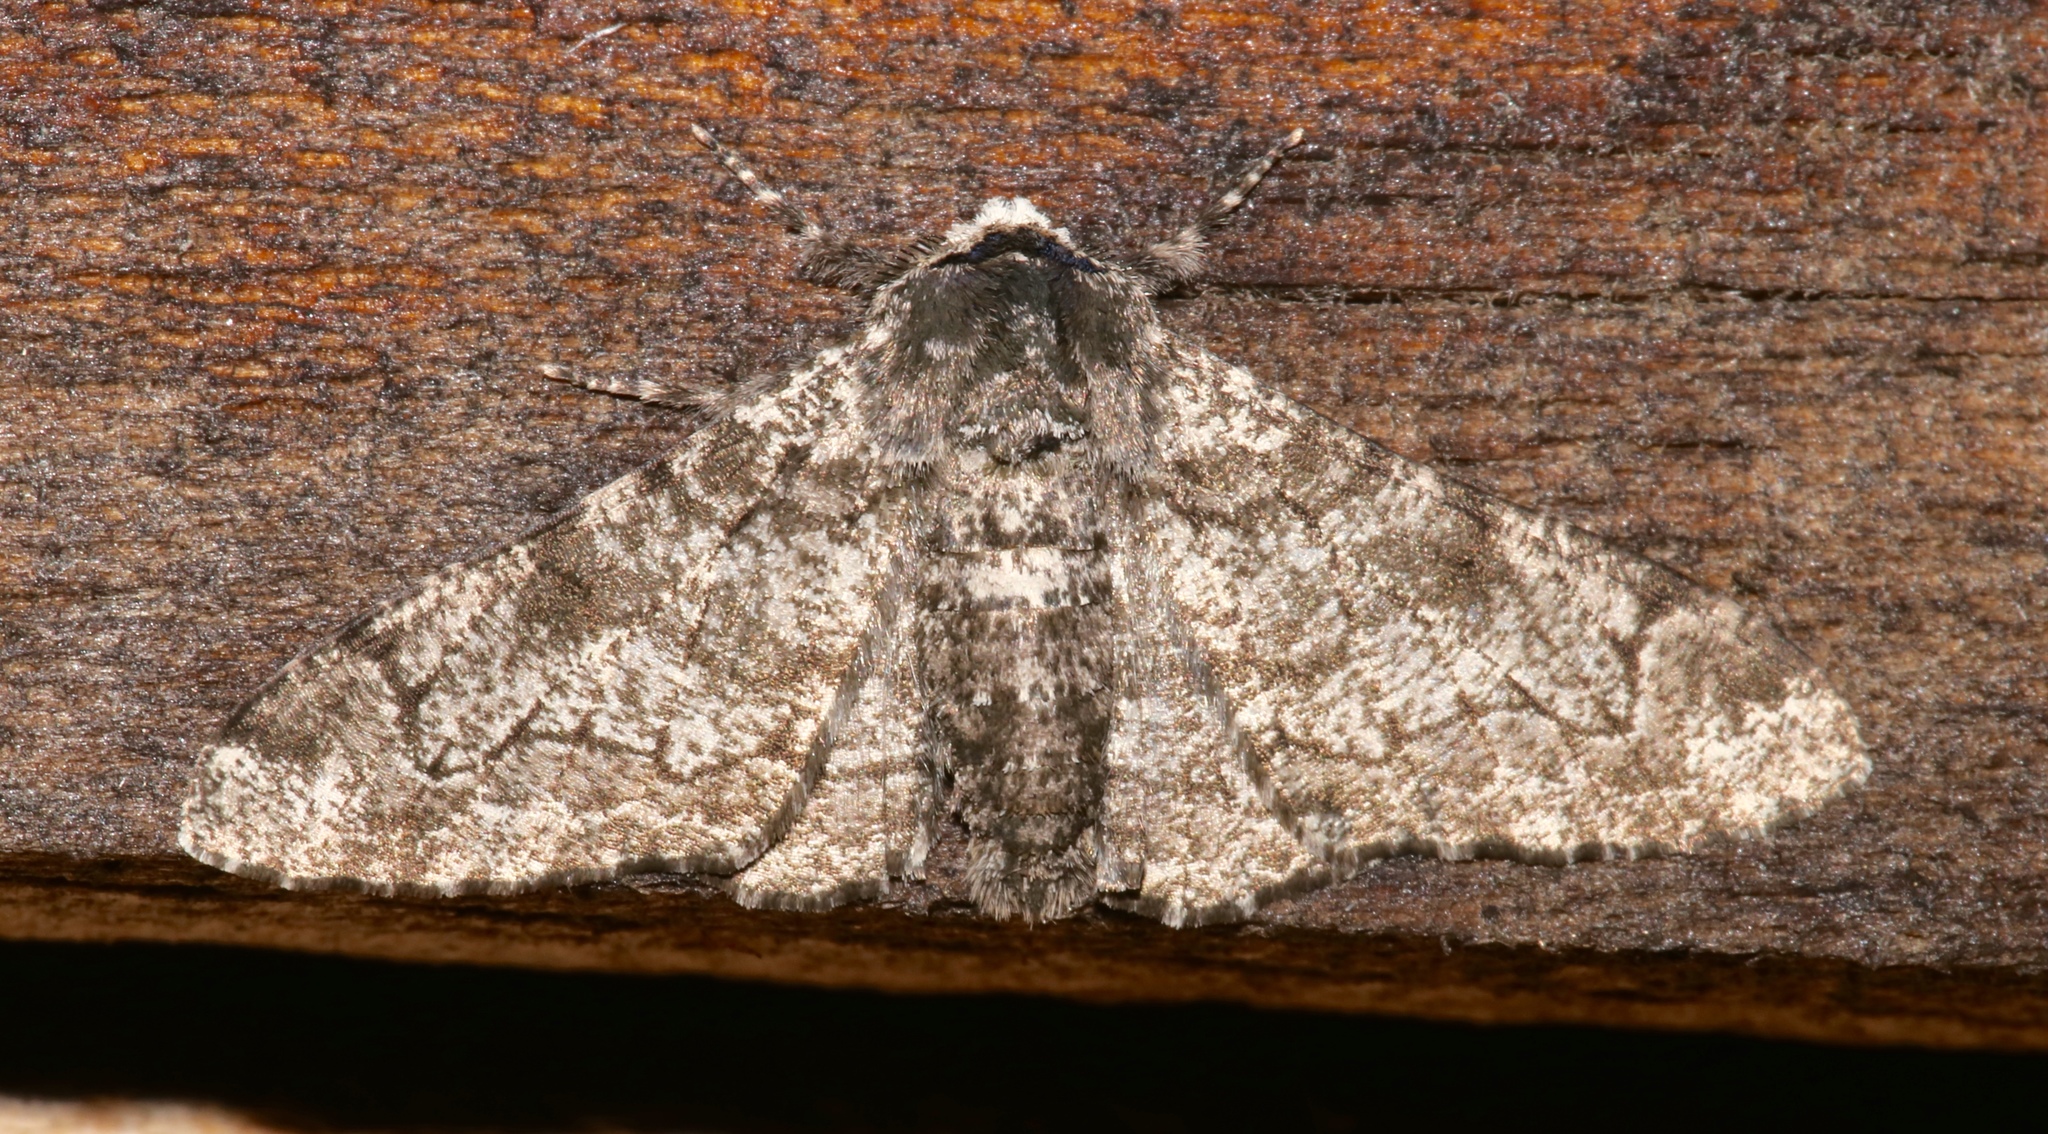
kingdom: Animalia
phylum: Arthropoda
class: Insecta
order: Lepidoptera
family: Geometridae
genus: Biston
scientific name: Biston betularia
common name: Peppered moth
